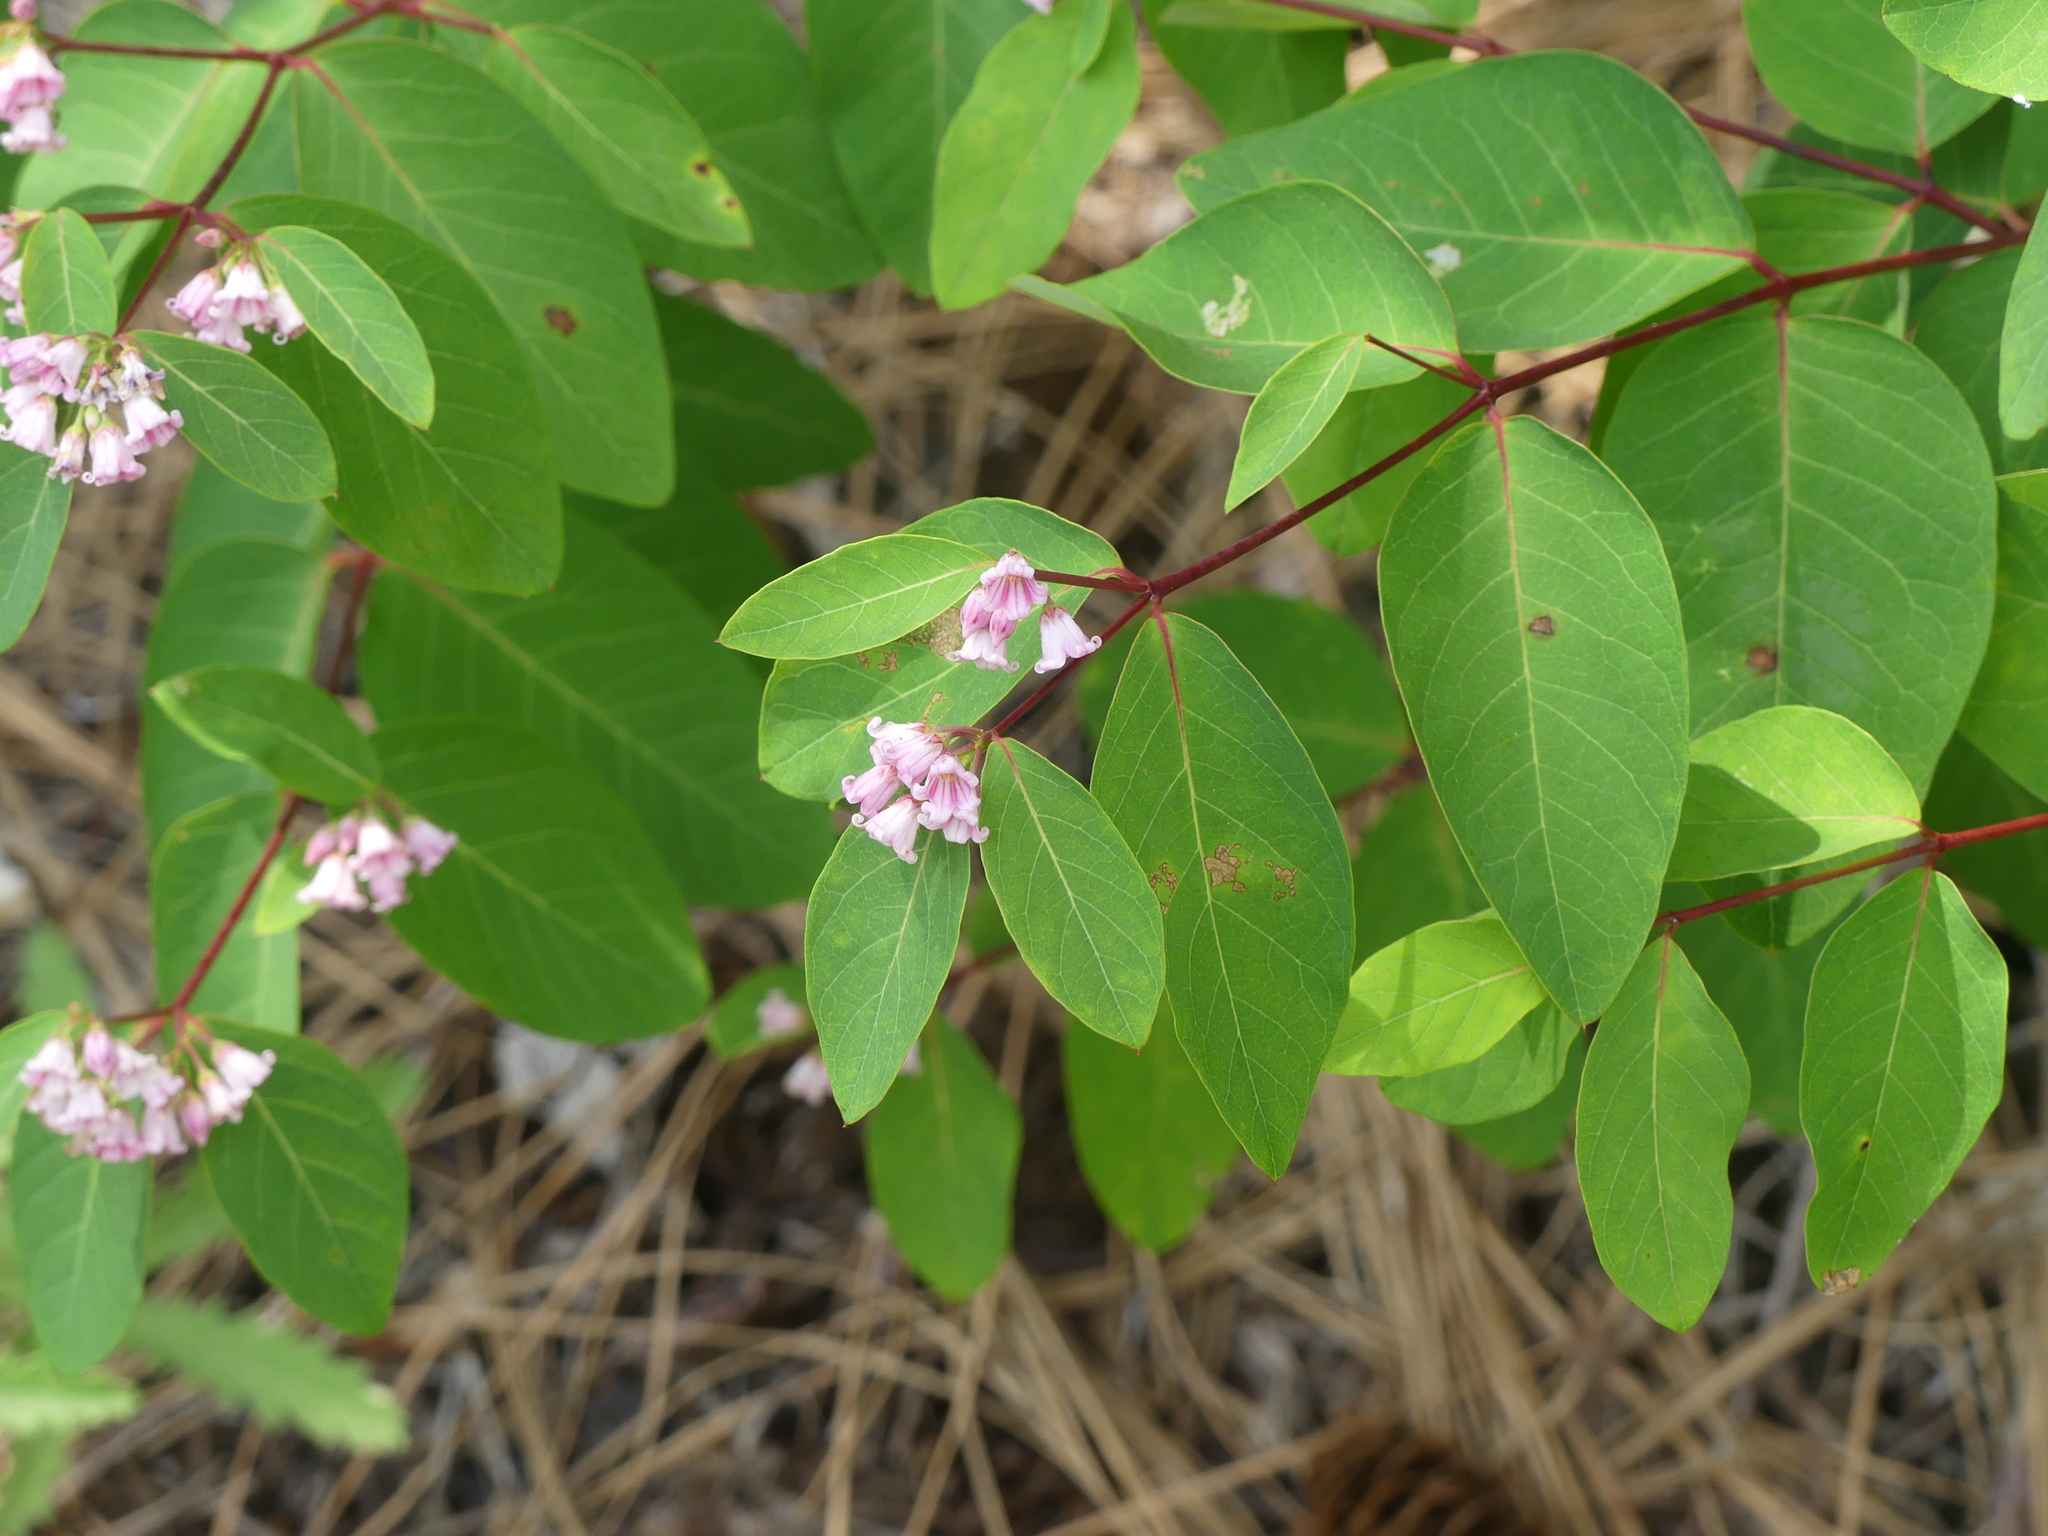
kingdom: Plantae
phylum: Tracheophyta
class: Magnoliopsida
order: Gentianales
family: Apocynaceae
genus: Apocynum
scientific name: Apocynum androsaemifolium
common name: Spreading dogbane
